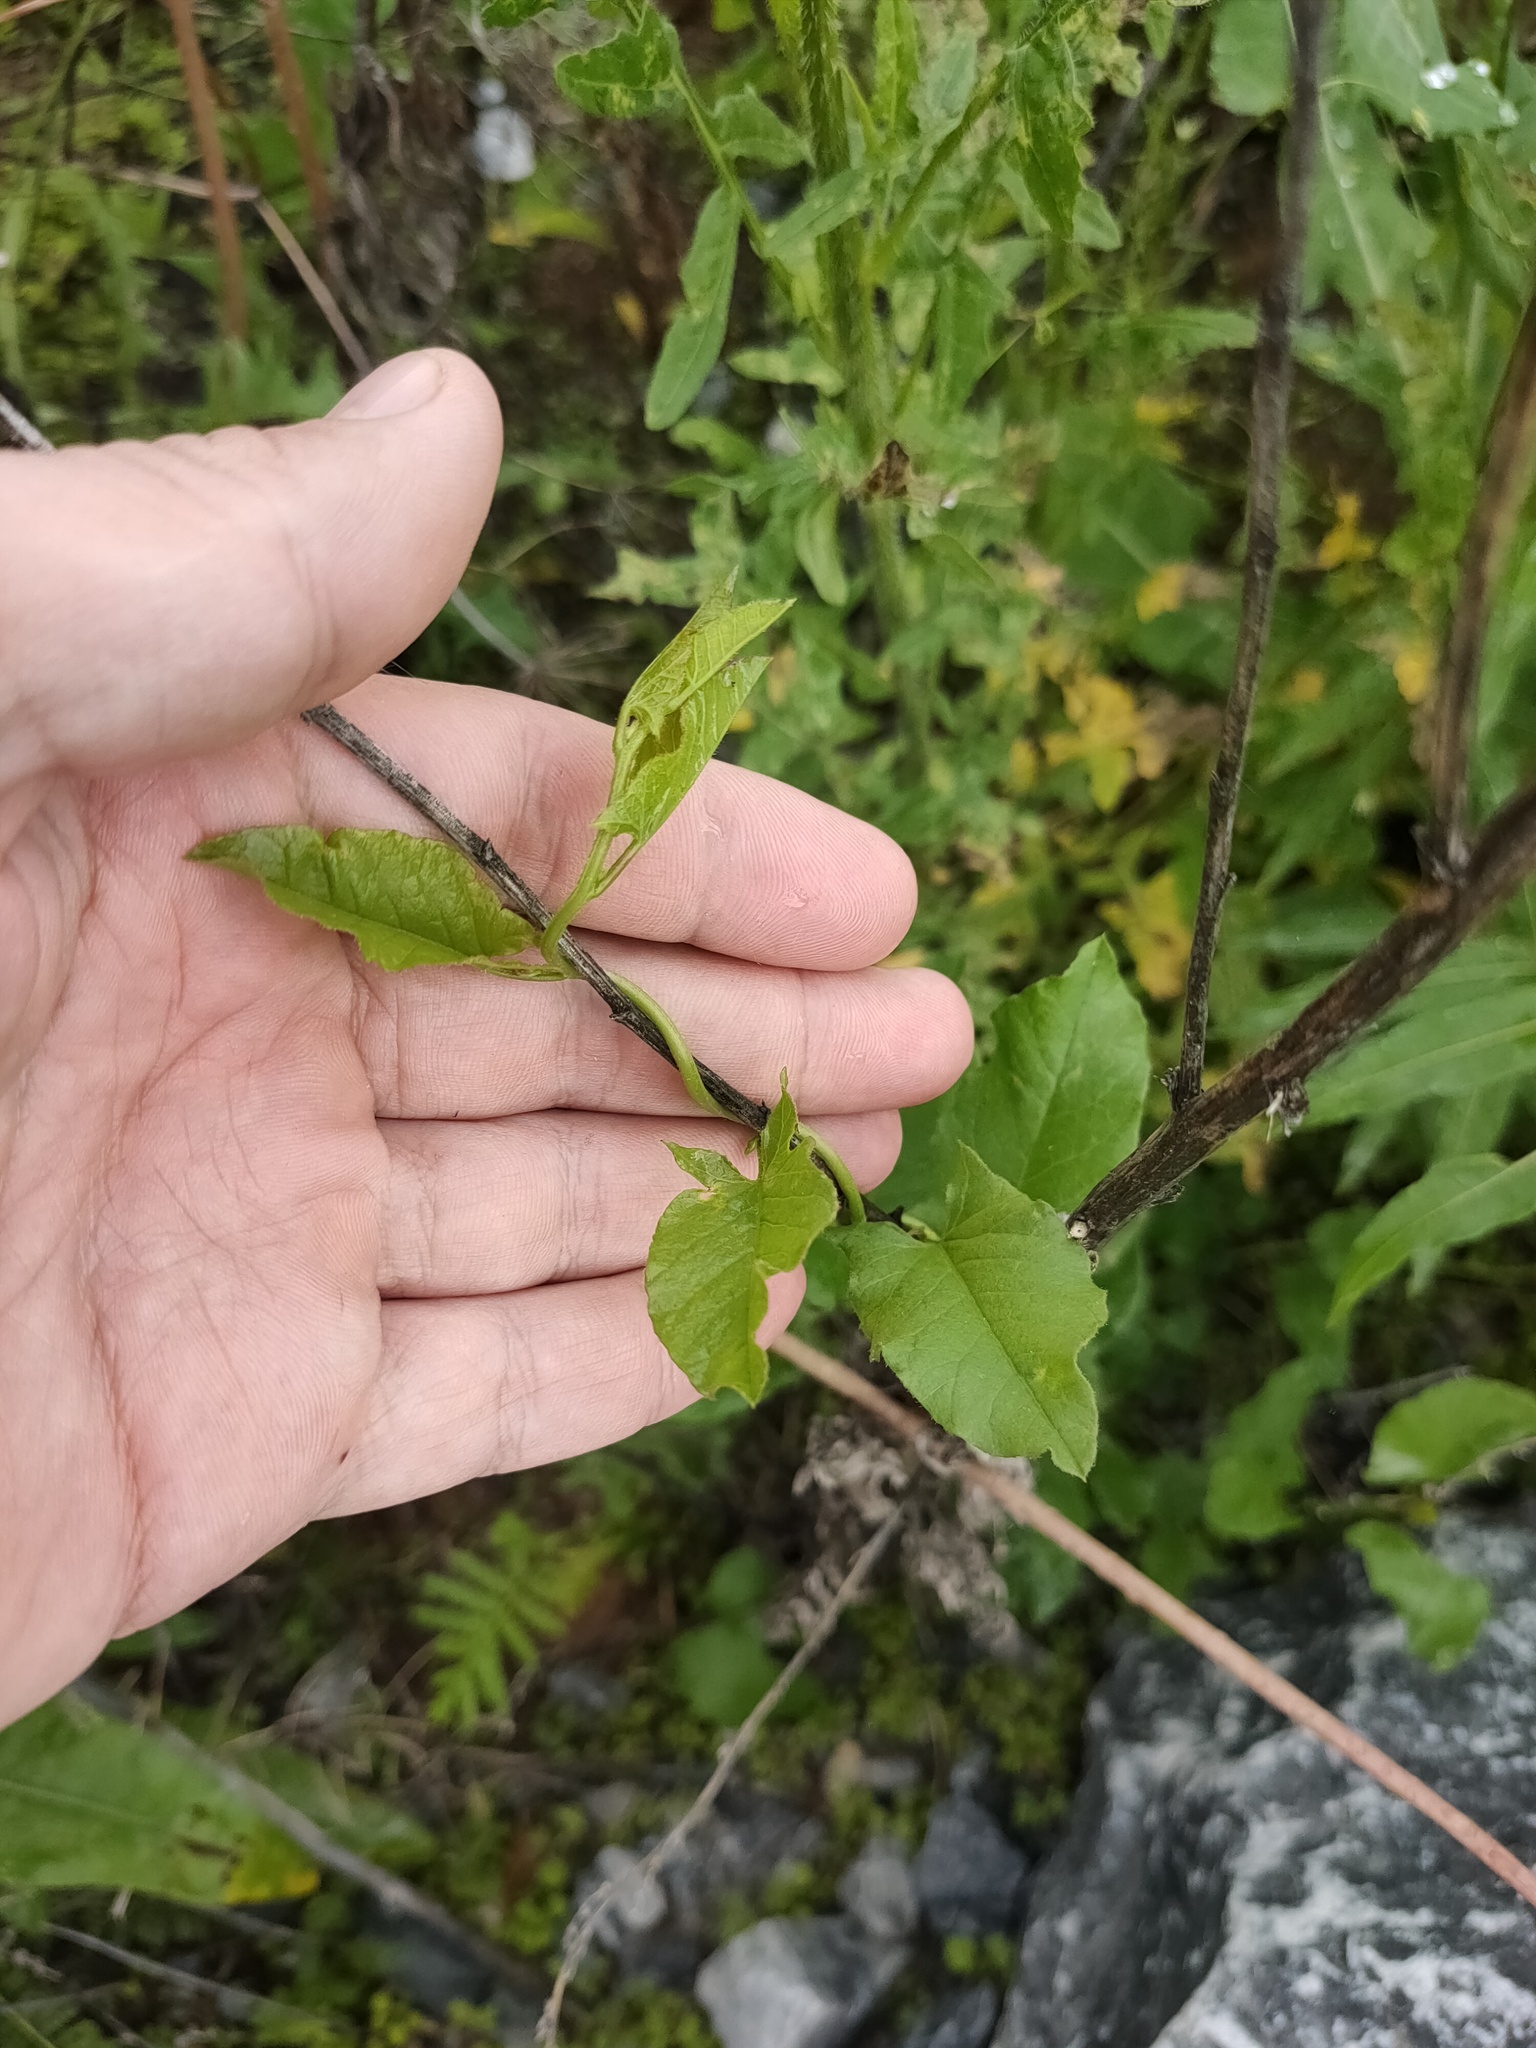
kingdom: Plantae
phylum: Tracheophyta
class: Magnoliopsida
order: Solanales
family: Convolvulaceae
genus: Convolvulus
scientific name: Convolvulus arvensis
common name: Field bindweed
